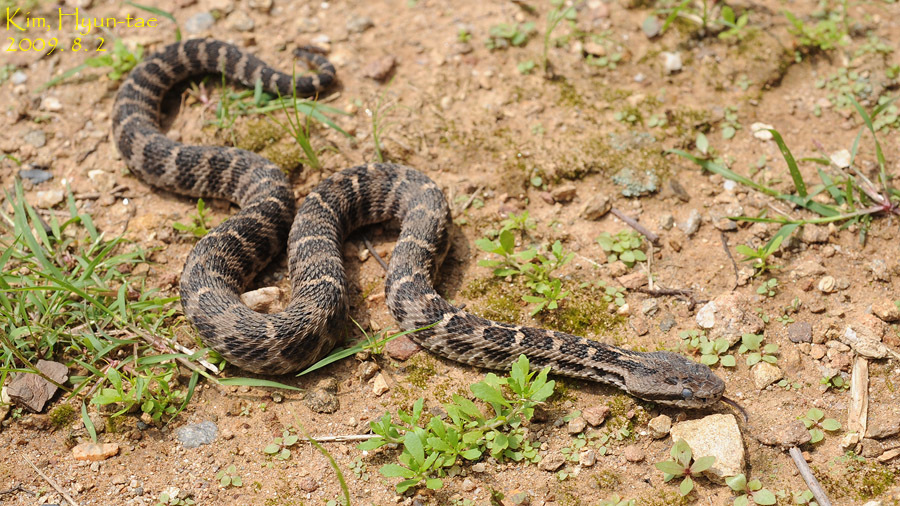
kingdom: Animalia
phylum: Chordata
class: Squamata
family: Viperidae
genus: Gloydius
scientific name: Gloydius intermedius
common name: Central asian pit viper
